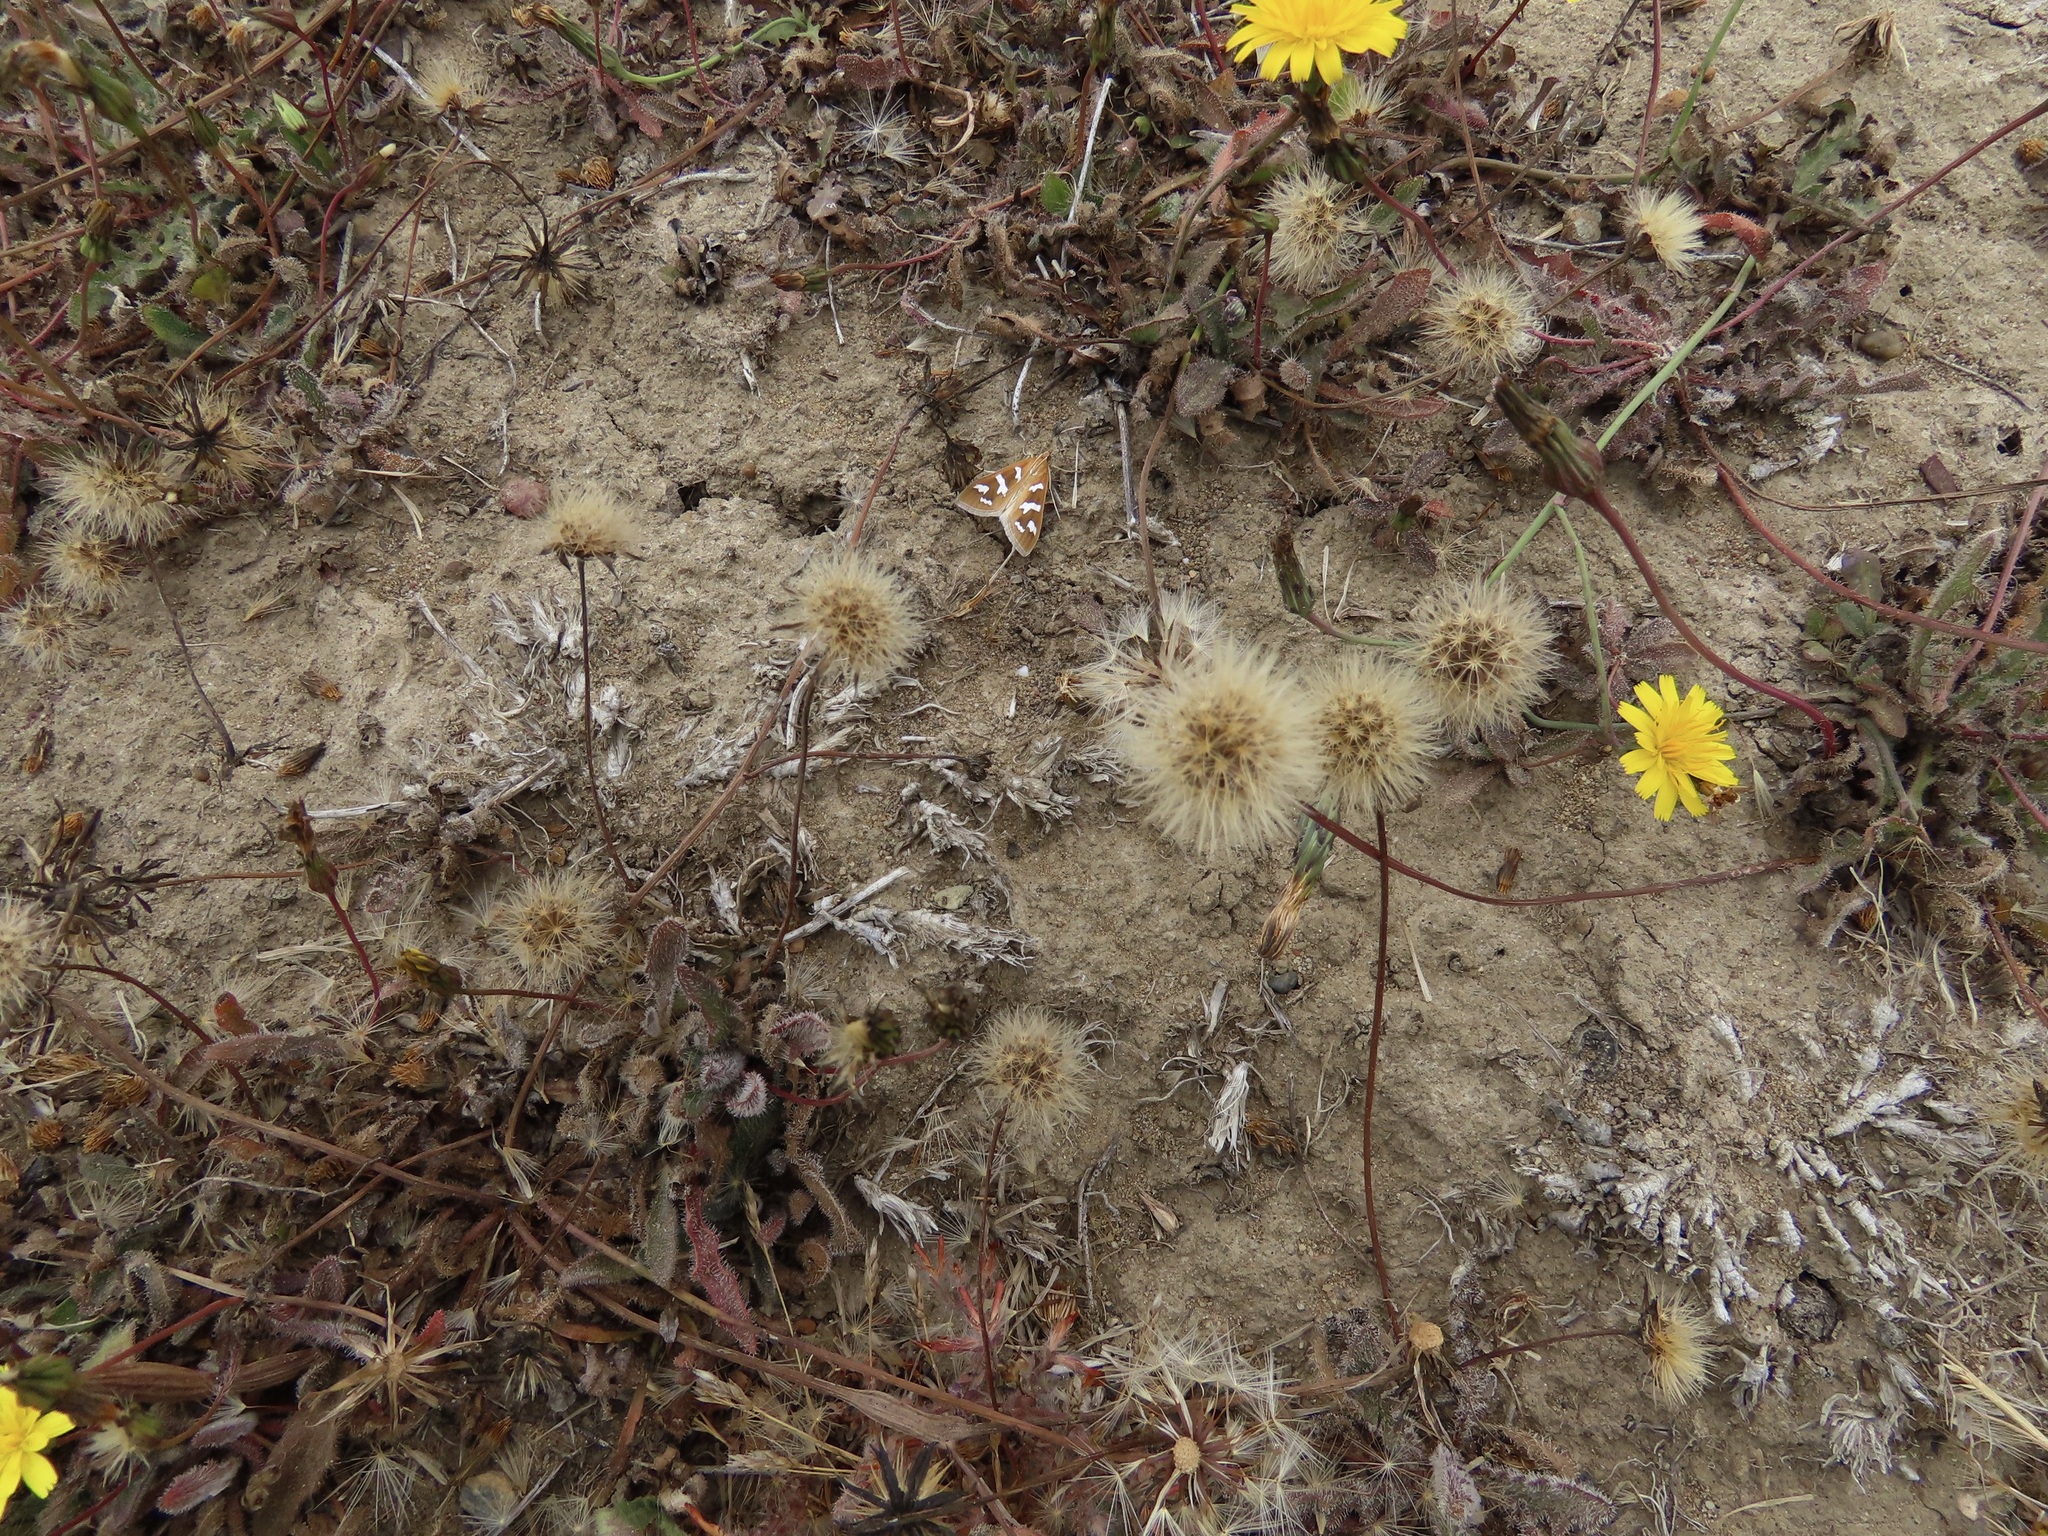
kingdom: Animalia
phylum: Arthropoda
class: Insecta
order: Lepidoptera
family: Crambidae
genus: Diastictis
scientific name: Diastictis fracturalis
